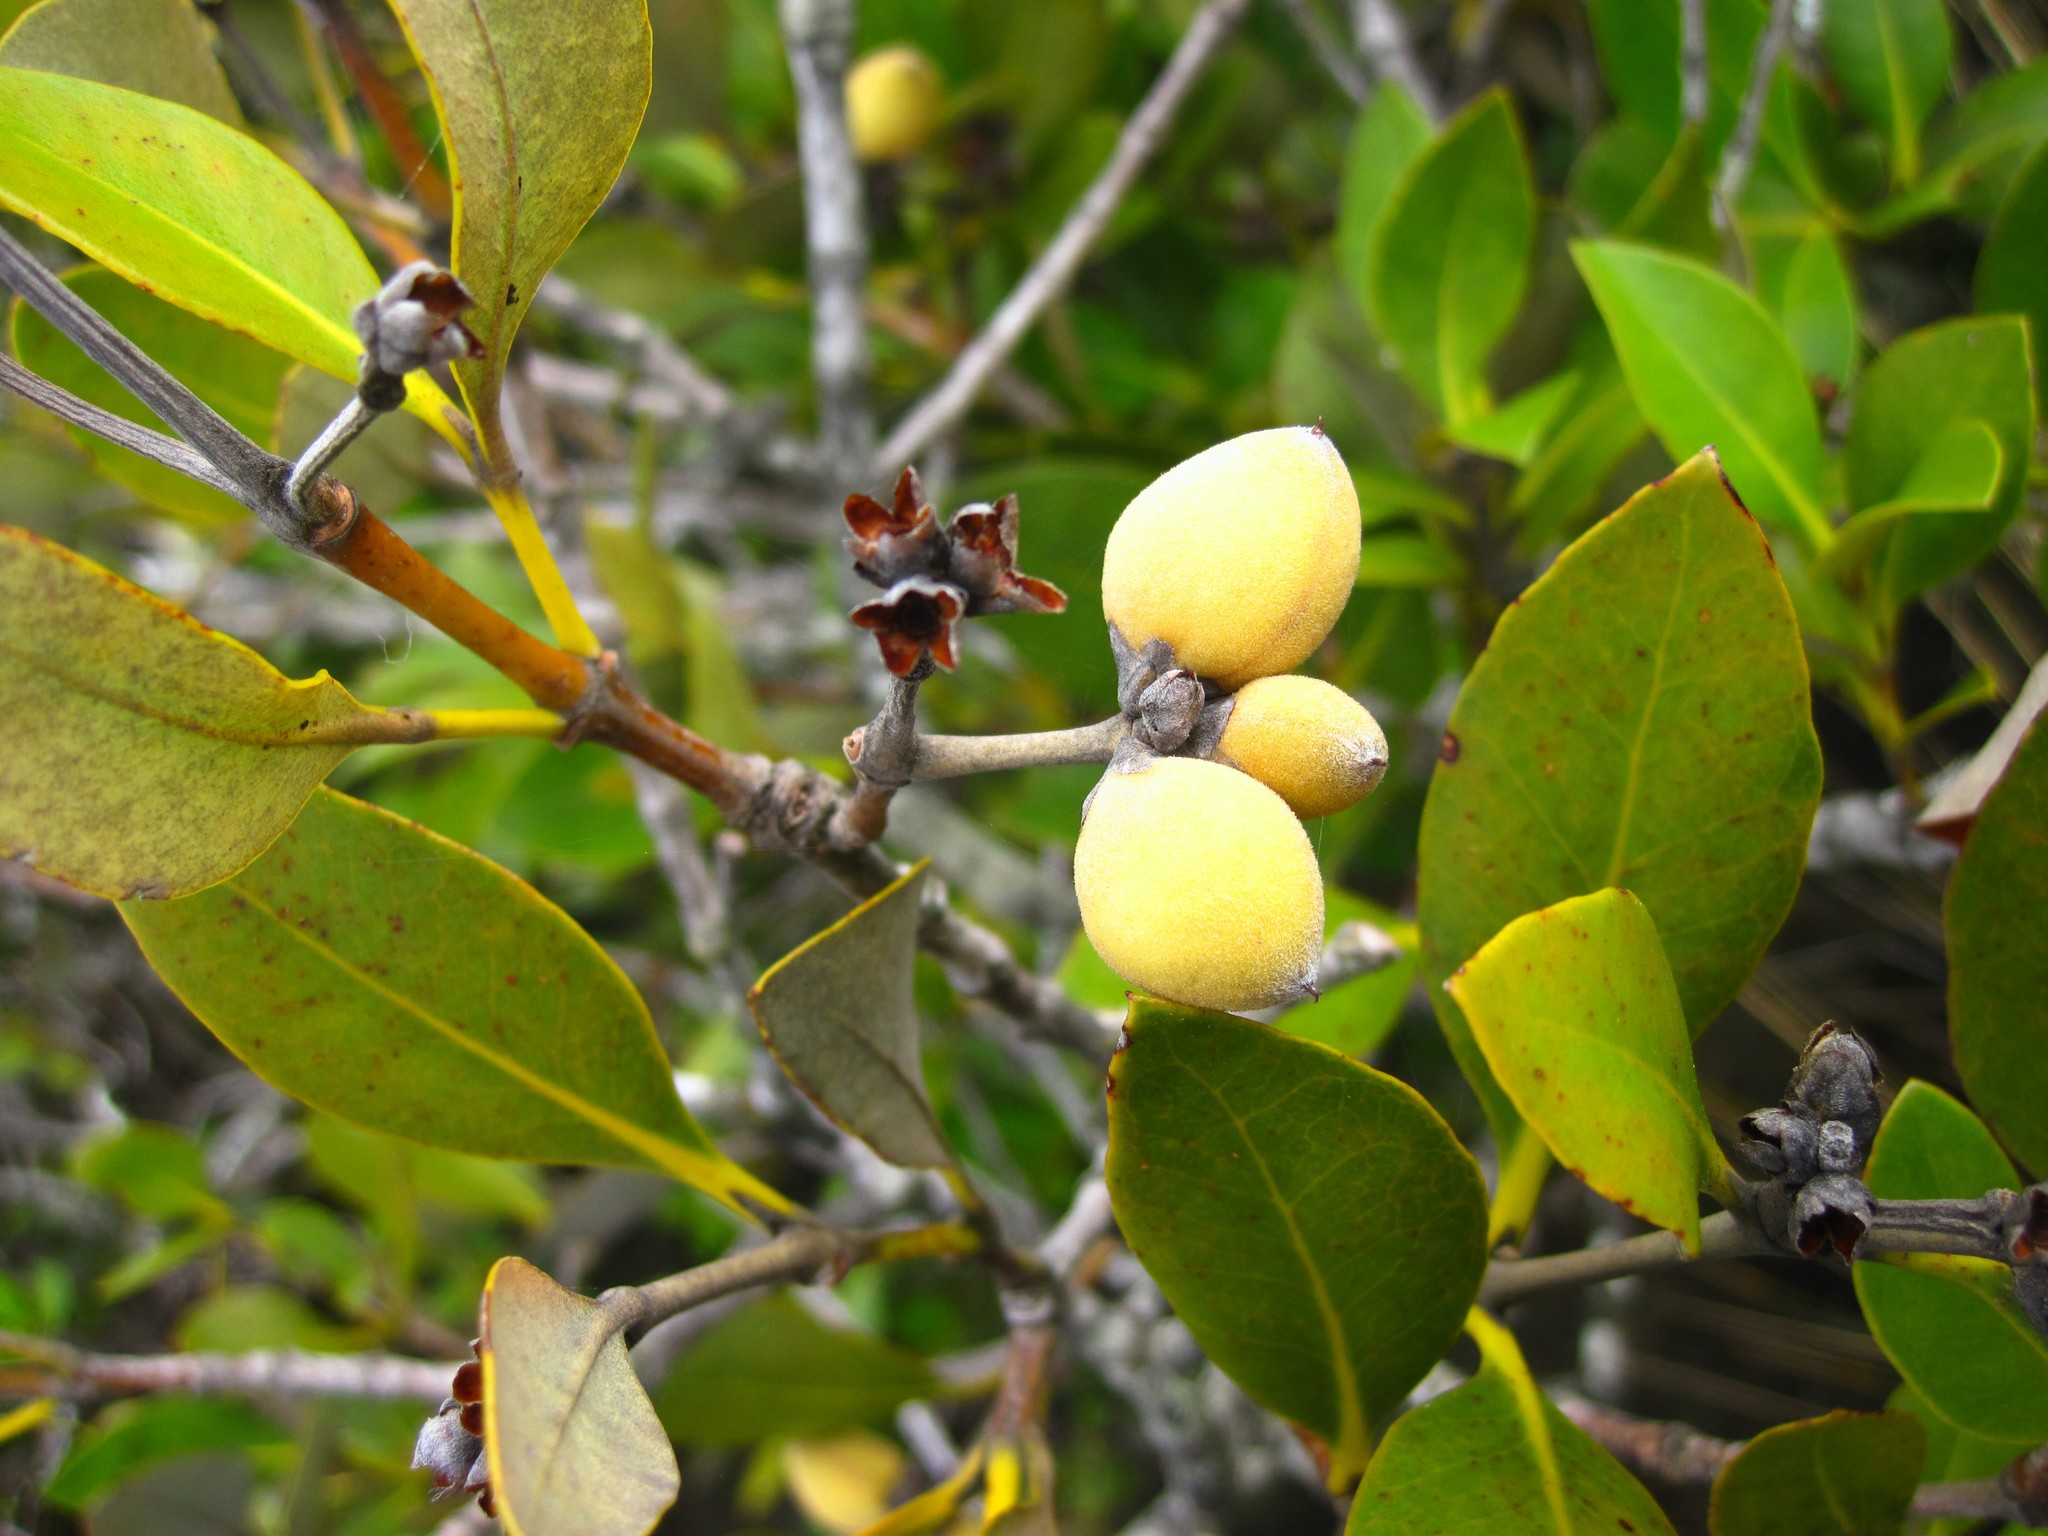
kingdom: Plantae
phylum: Tracheophyta
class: Magnoliopsida
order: Lamiales
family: Acanthaceae
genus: Avicennia
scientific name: Avicennia marina
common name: Gray mangrove
